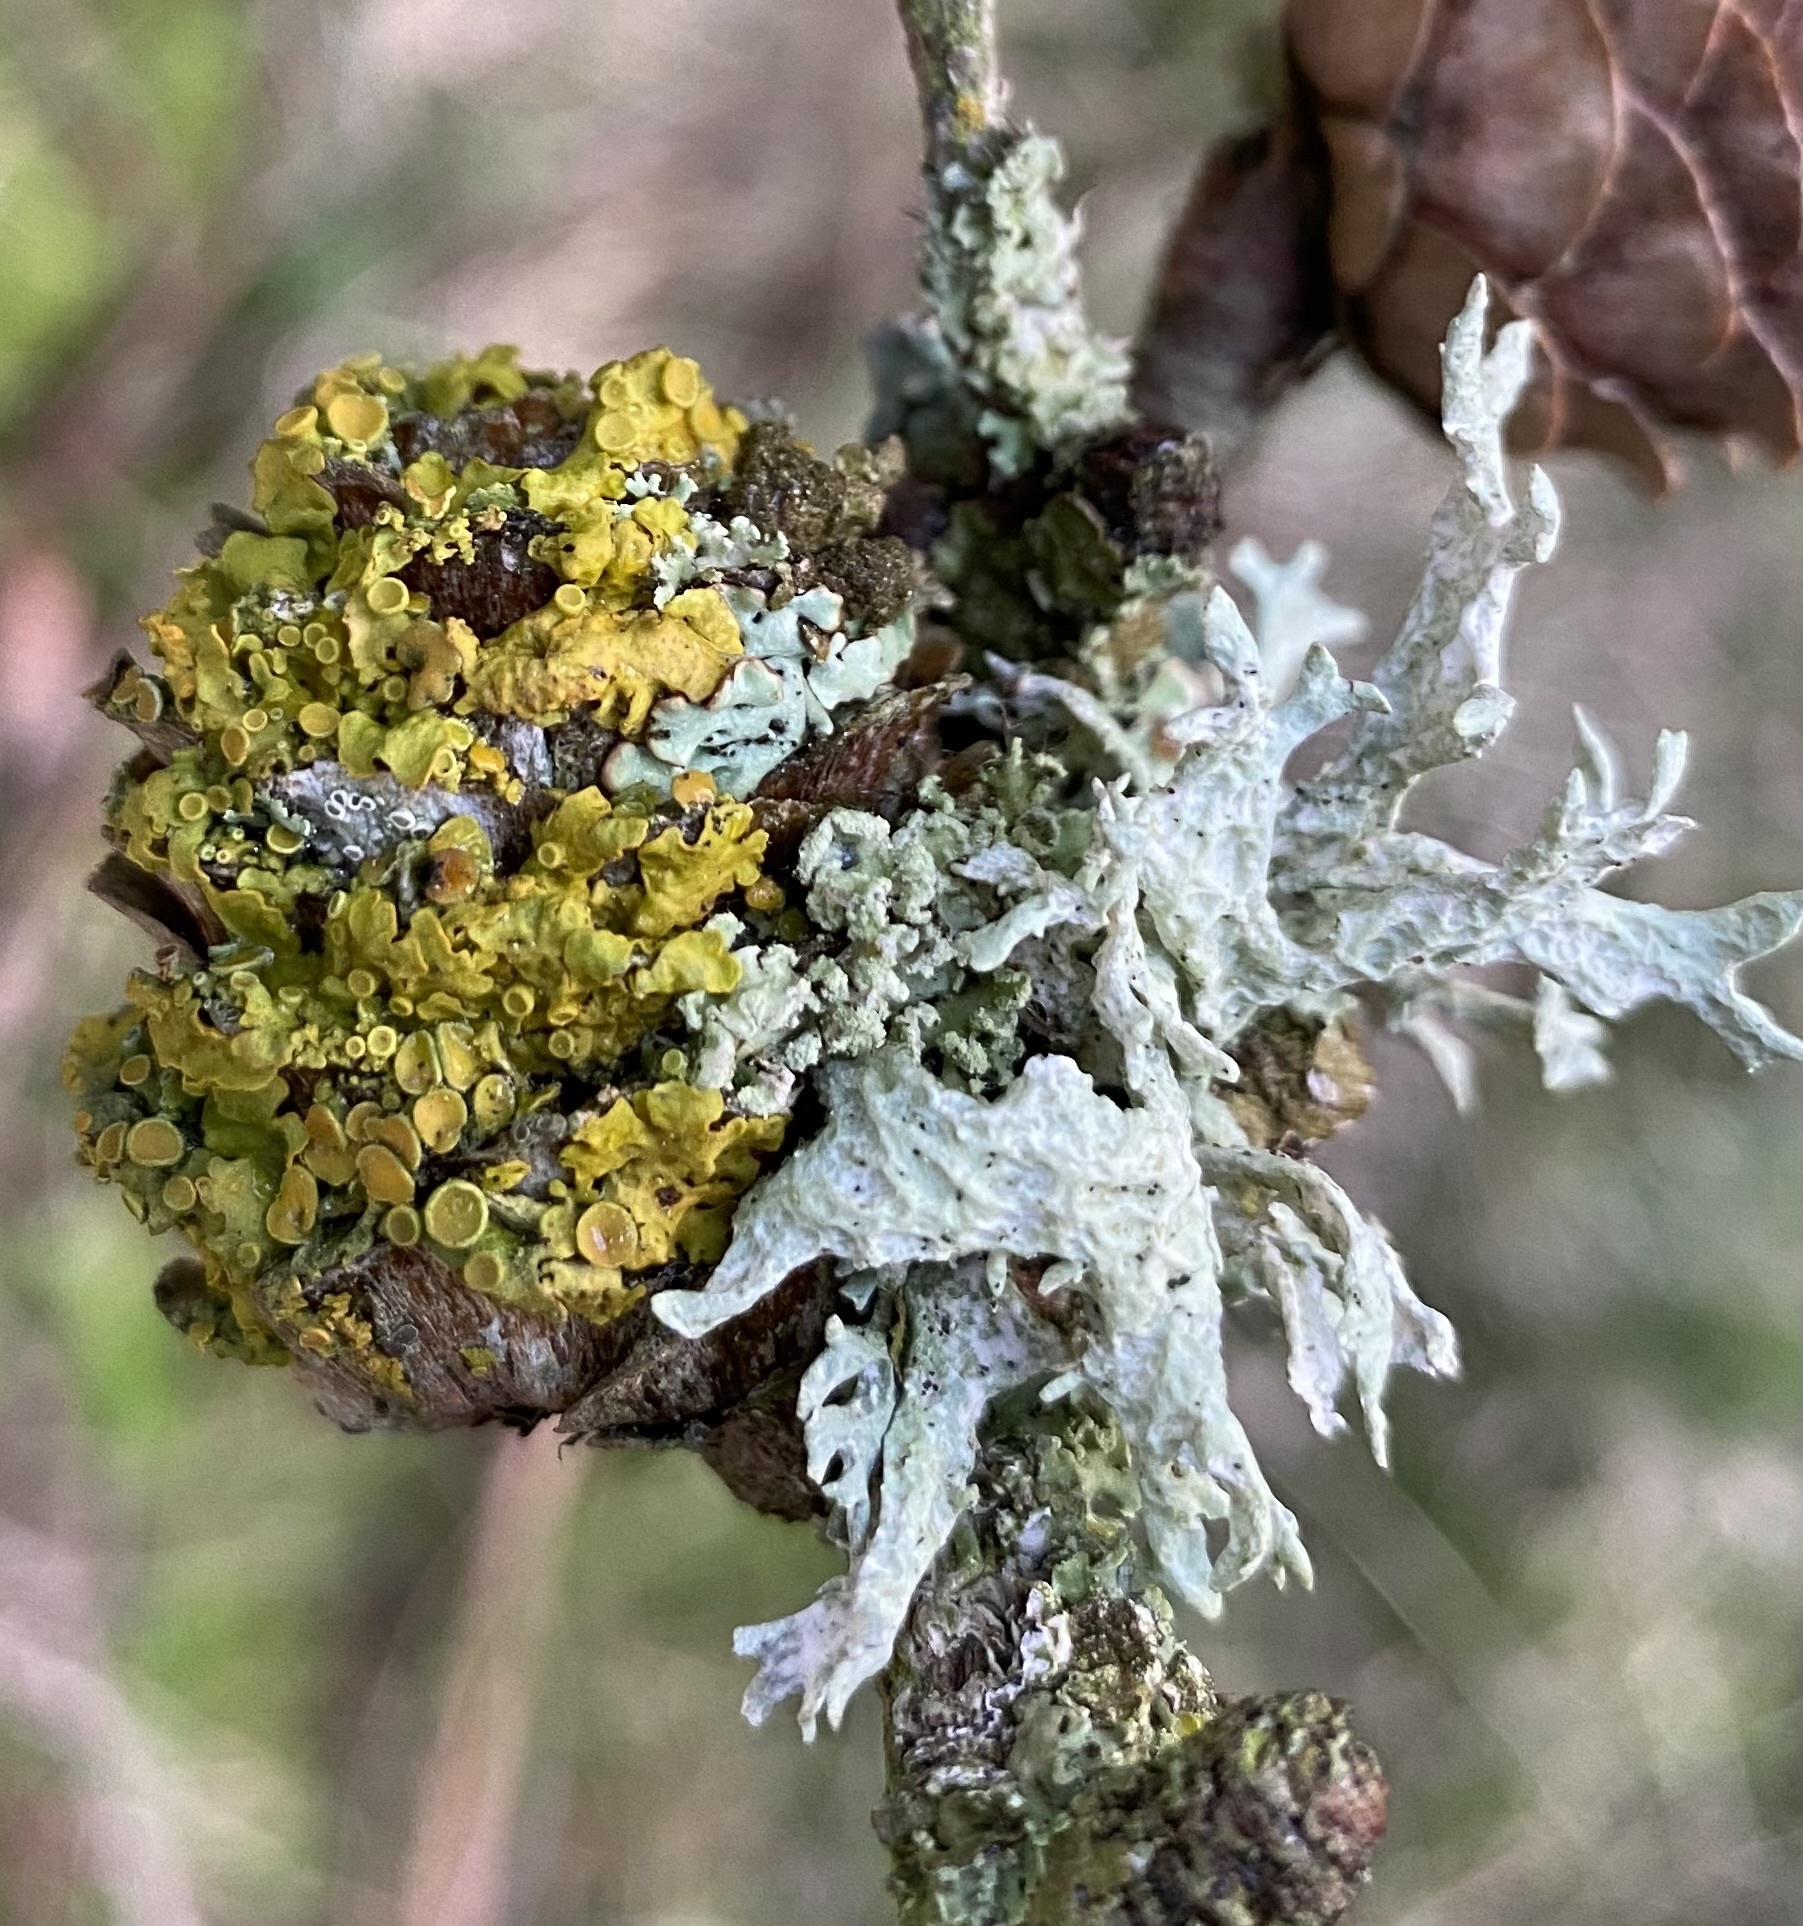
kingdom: Fungi
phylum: Ascomycota
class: Lecanoromycetes
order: Teloschistales
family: Teloschistaceae
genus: Xanthoria
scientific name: Xanthoria parietina
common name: Common orange lichen
